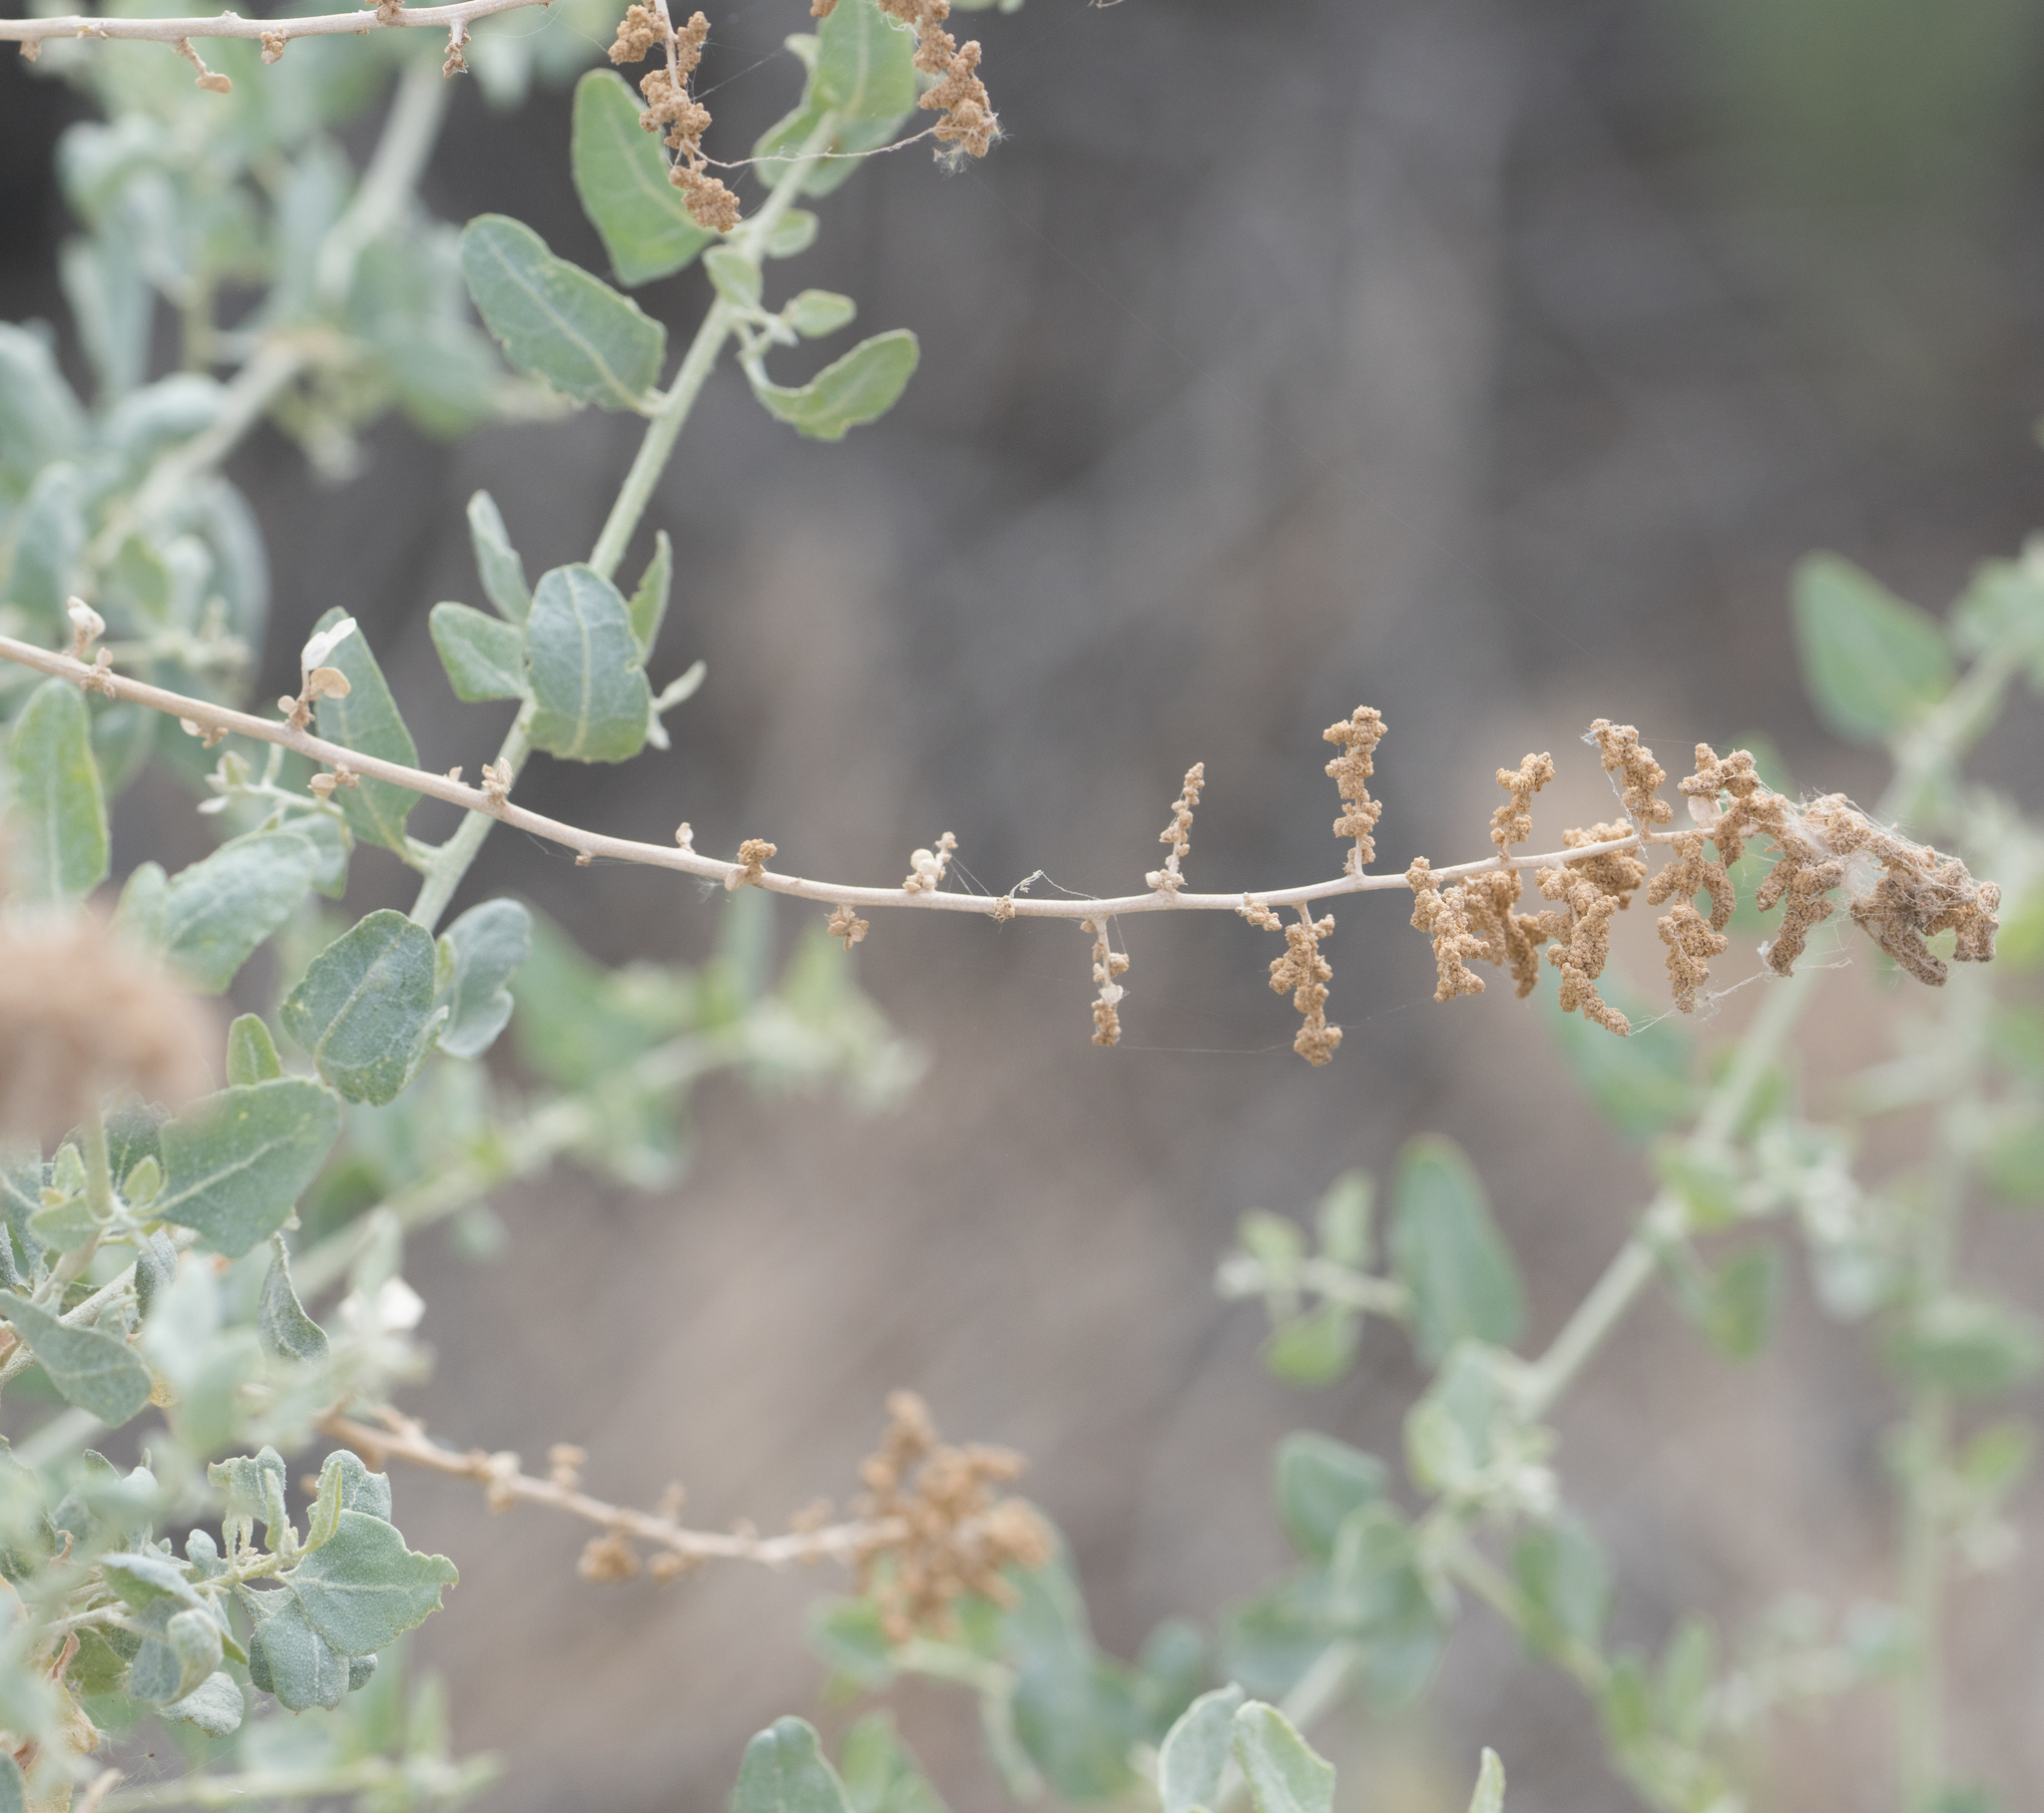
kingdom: Plantae
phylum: Tracheophyta
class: Magnoliopsida
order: Caryophyllales
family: Amaranthaceae
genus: Atriplex
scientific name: Atriplex lentiformis
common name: Big saltbush
